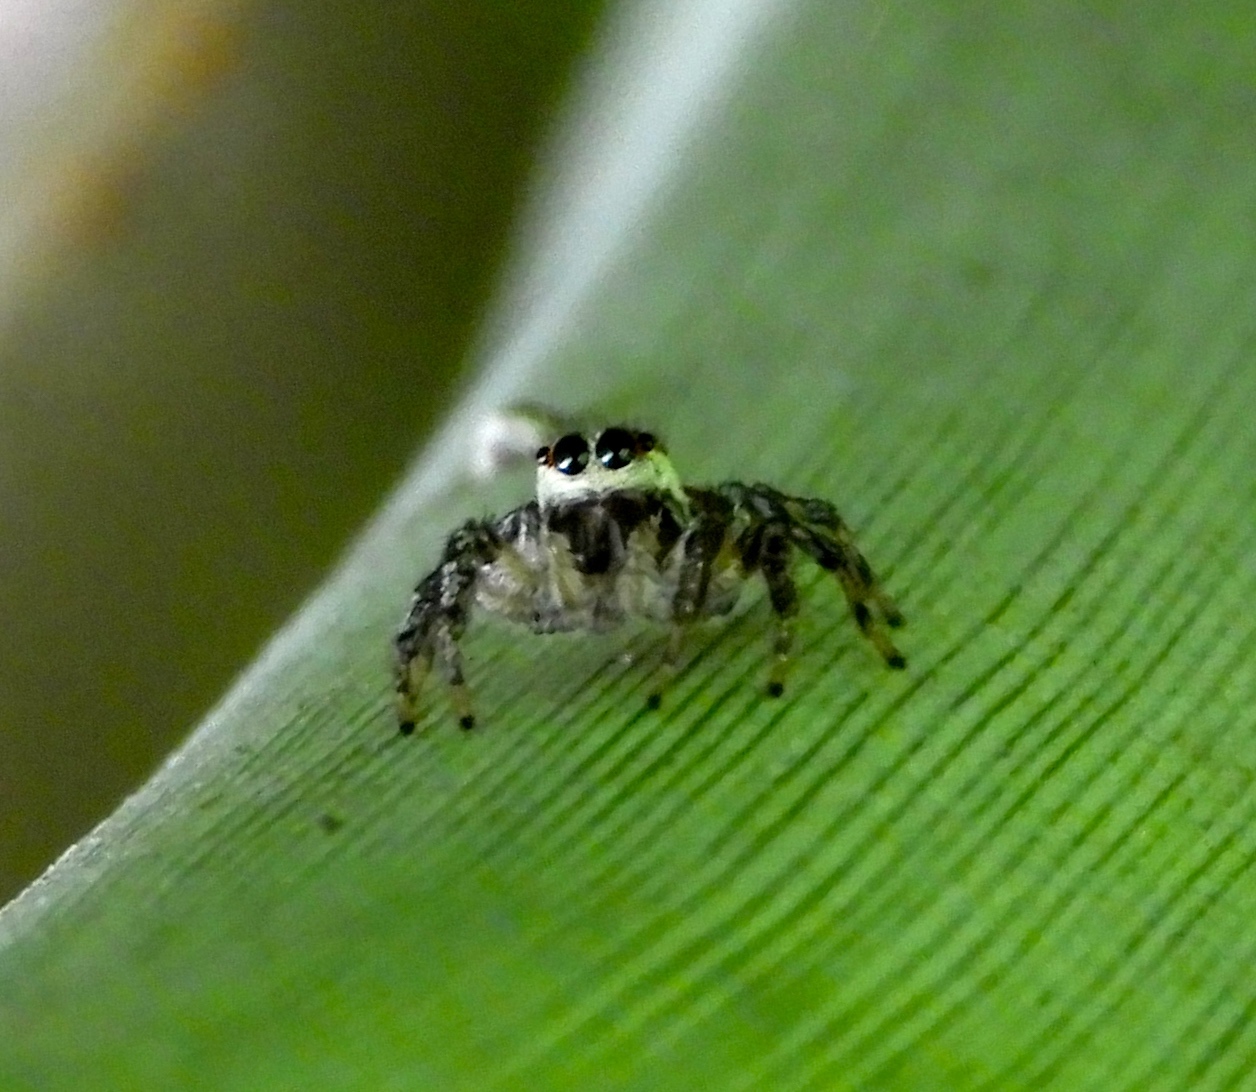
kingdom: Animalia
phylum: Arthropoda
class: Arachnida
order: Araneae
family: Salticidae
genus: Nycerella
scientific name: Nycerella delecta
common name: Jumping spiders
